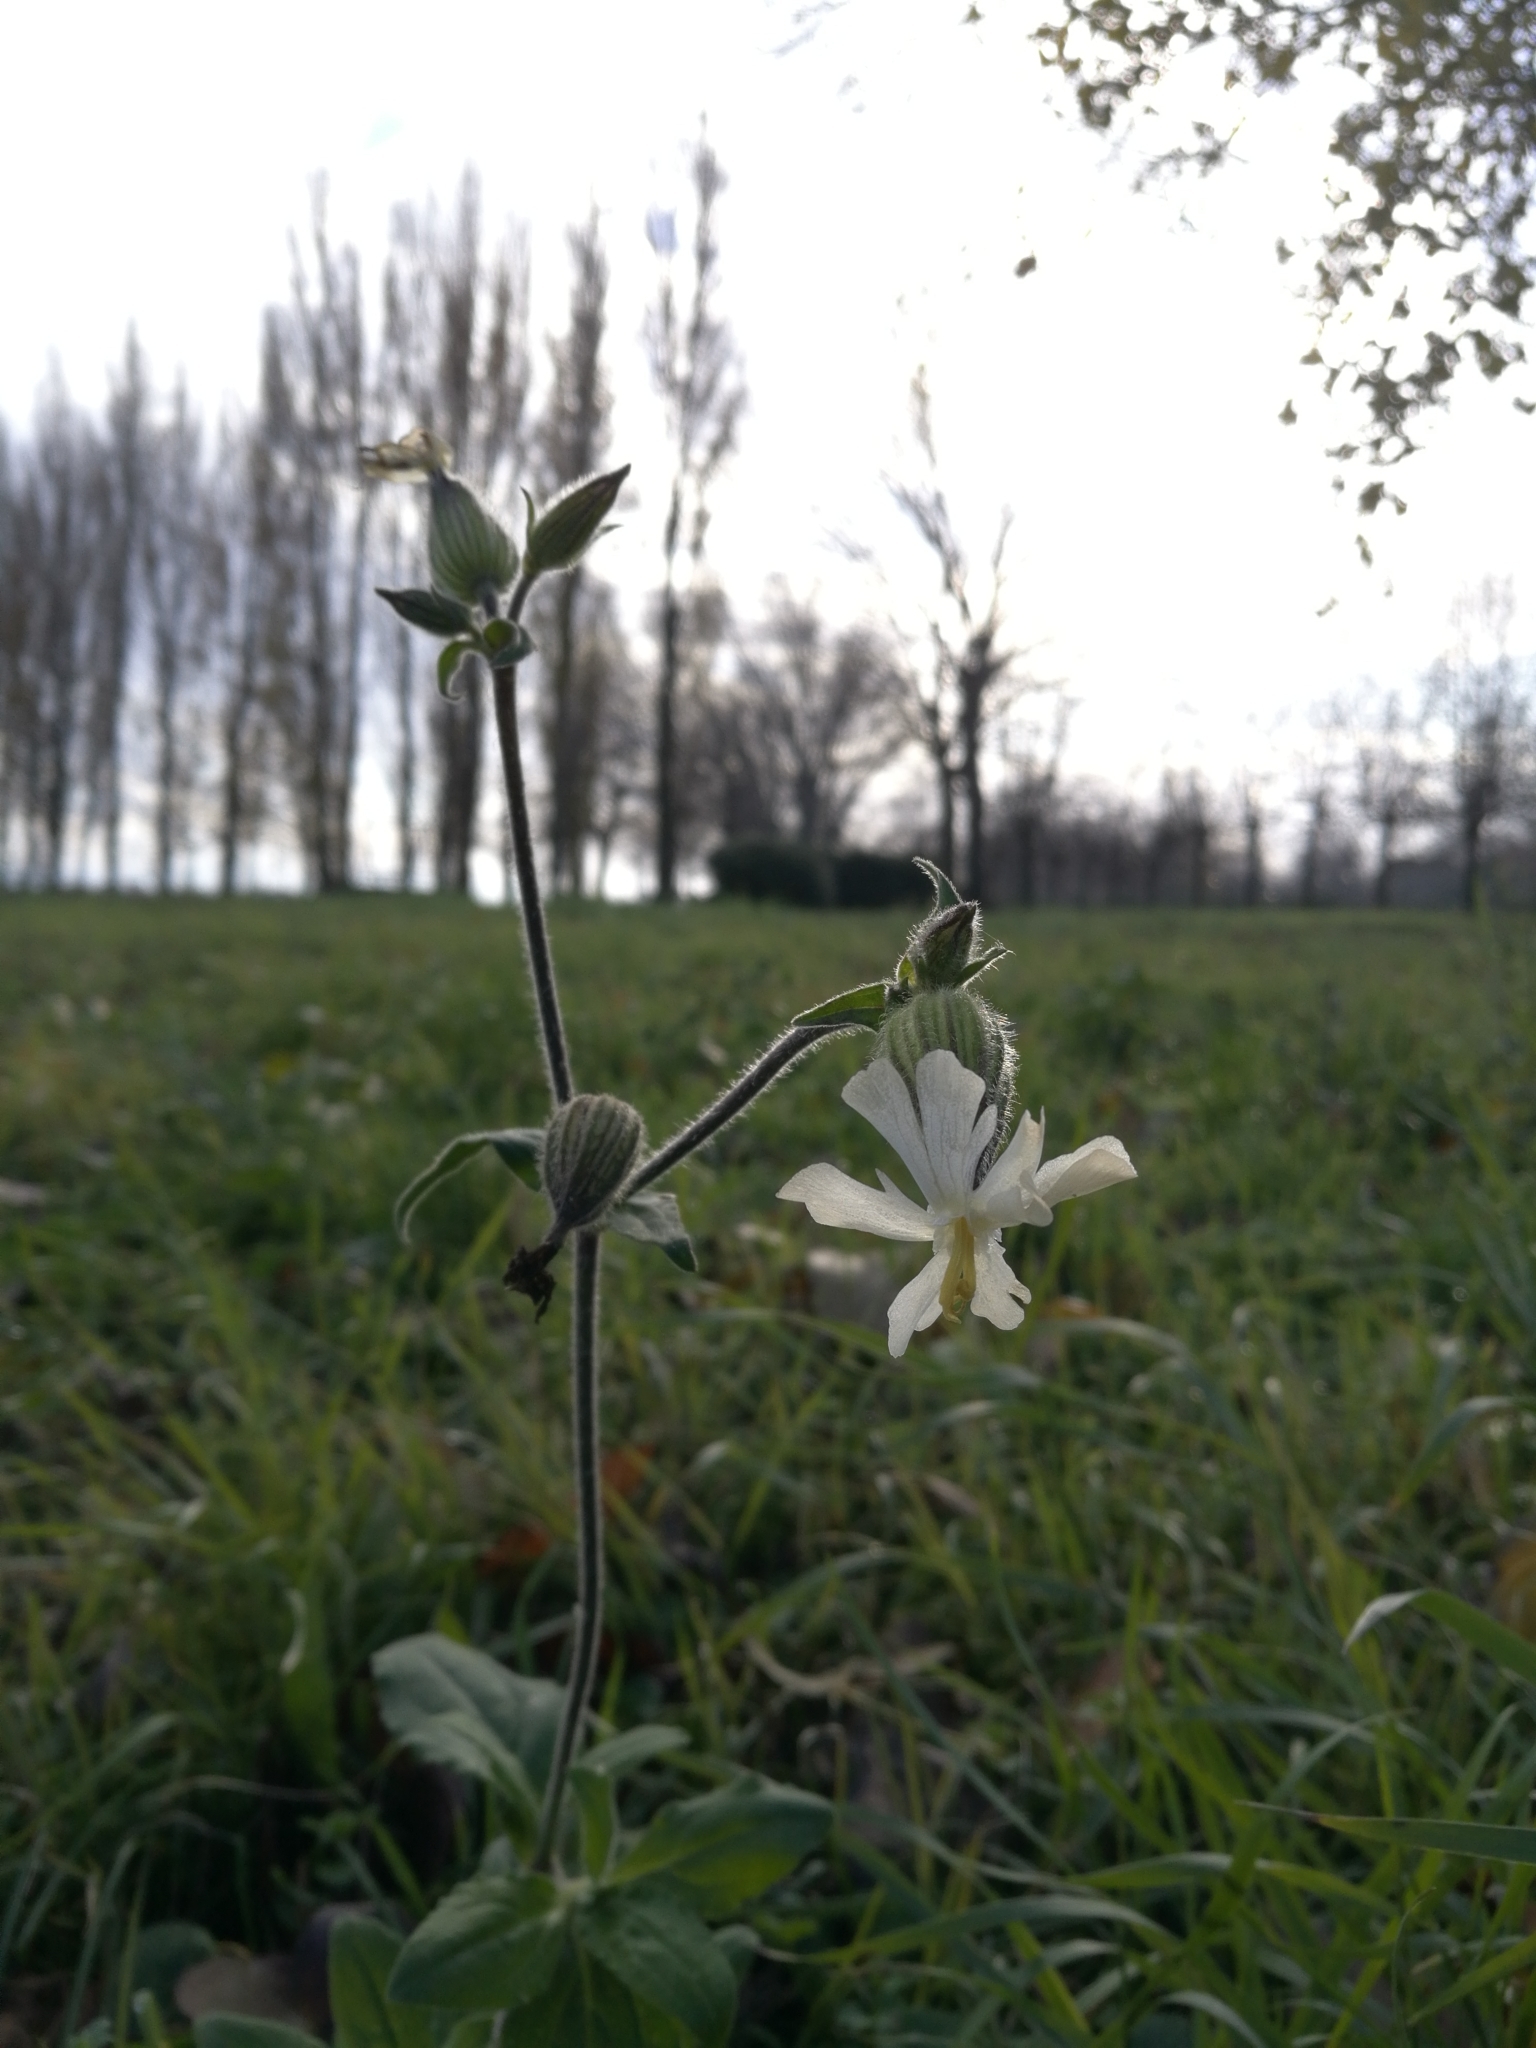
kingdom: Plantae
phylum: Tracheophyta
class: Magnoliopsida
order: Caryophyllales
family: Caryophyllaceae
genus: Silene
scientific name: Silene latifolia
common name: White campion
